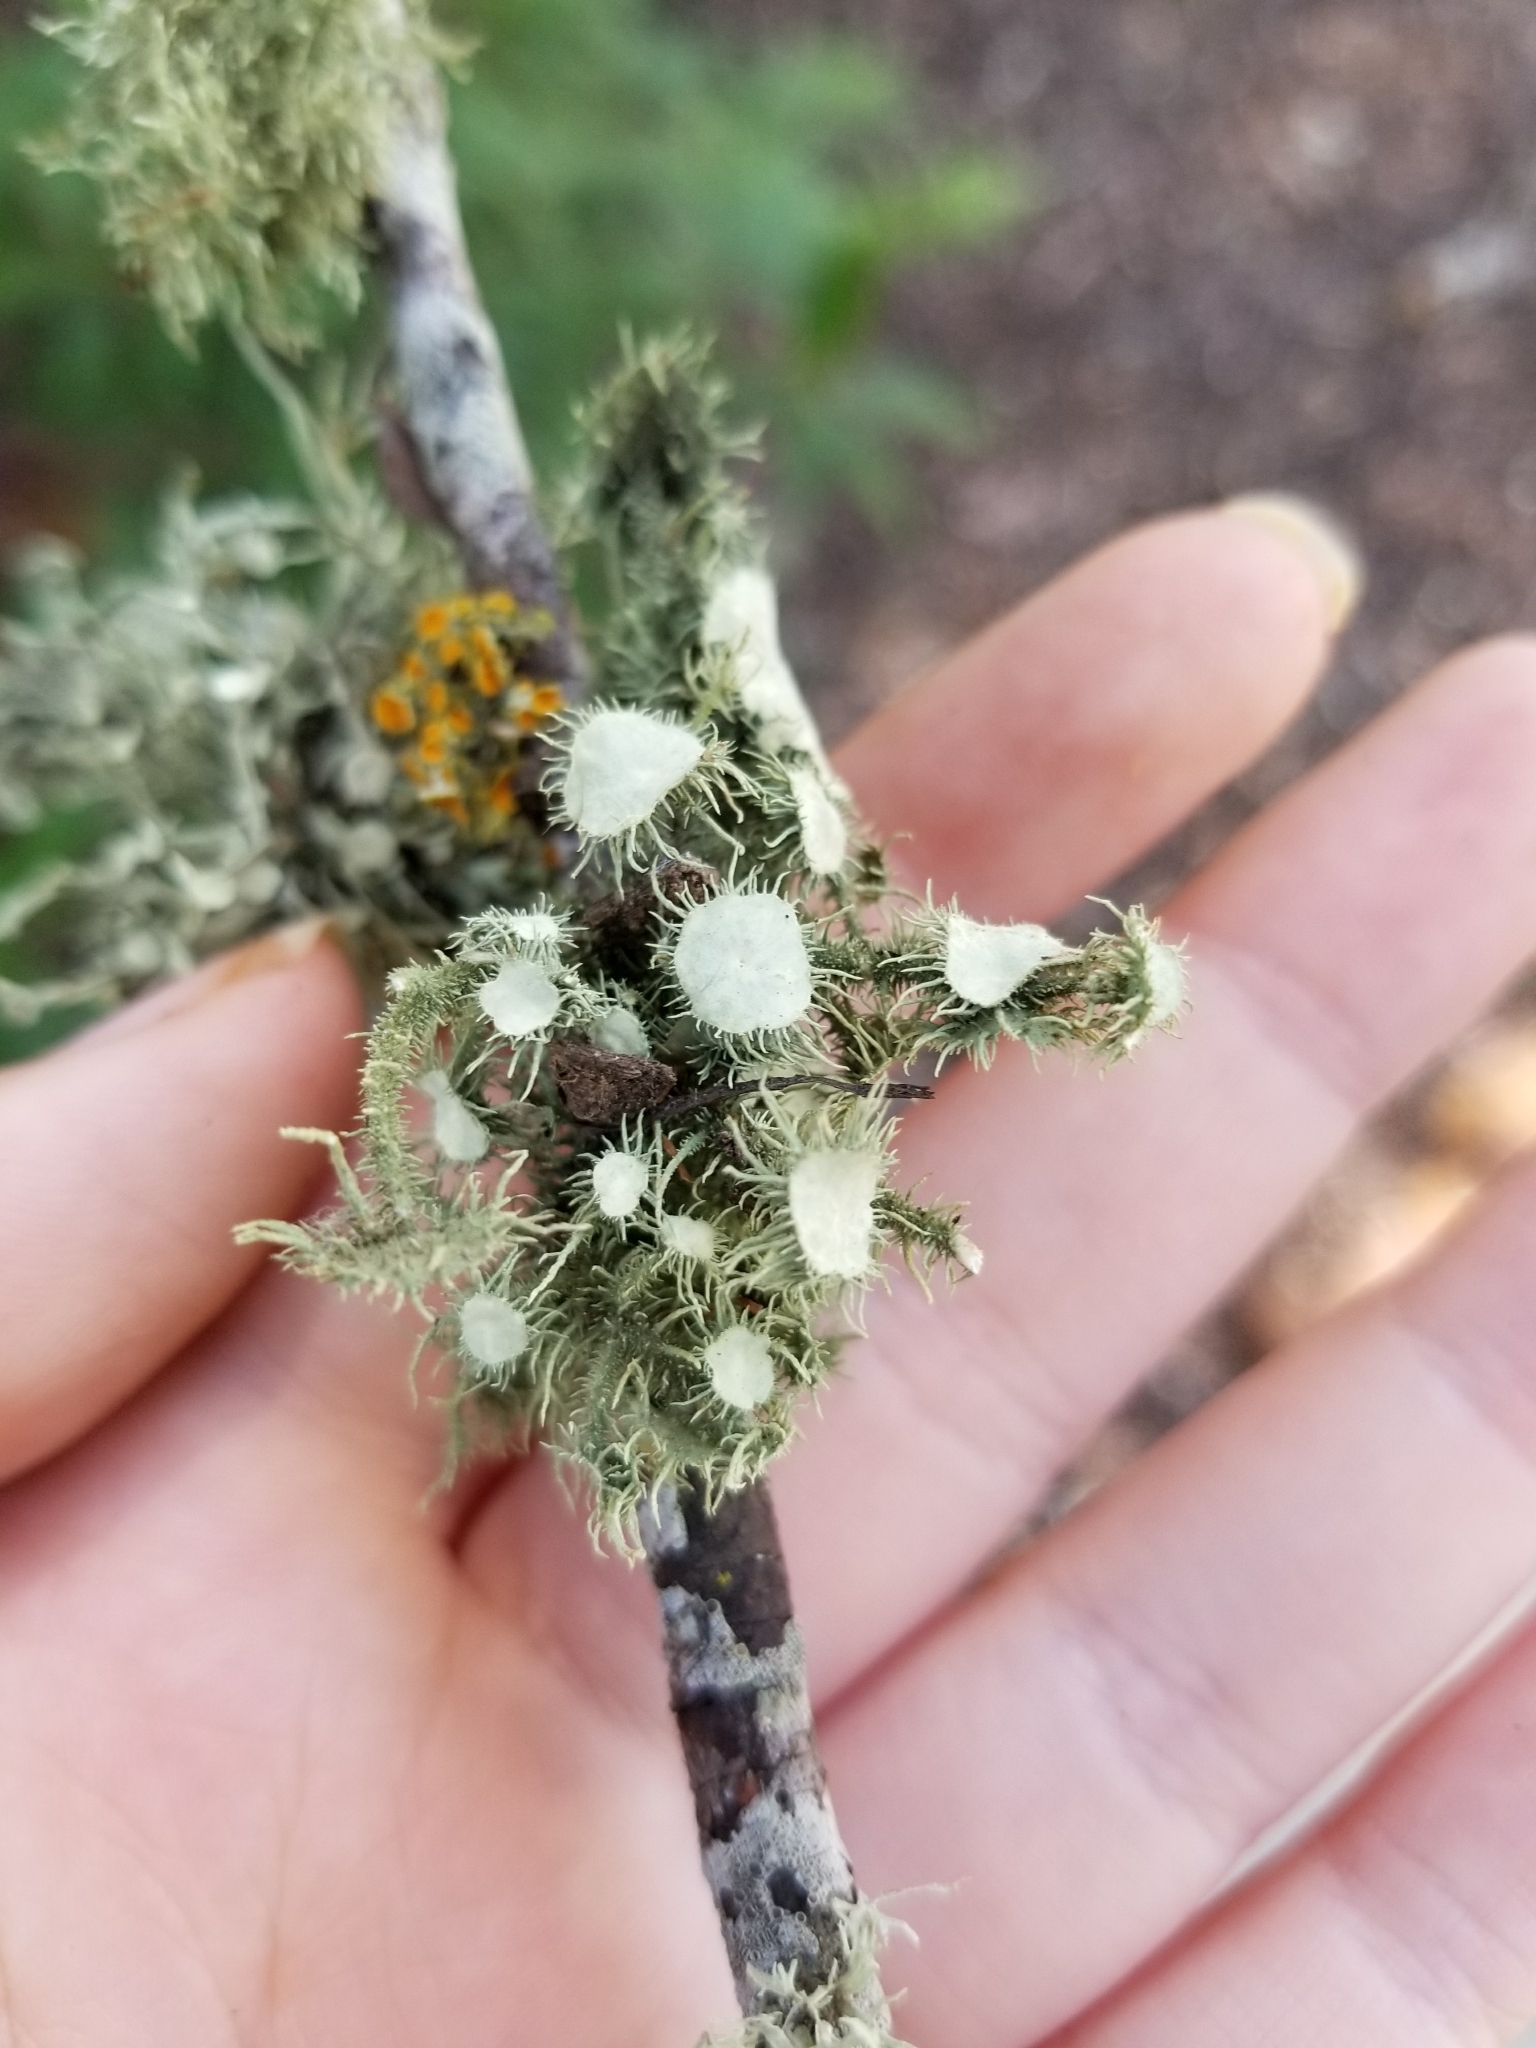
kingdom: Fungi
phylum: Ascomycota
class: Lecanoromycetes
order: Lecanorales
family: Parmeliaceae
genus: Usnea
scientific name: Usnea strigosa
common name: Bushy beard lichen
